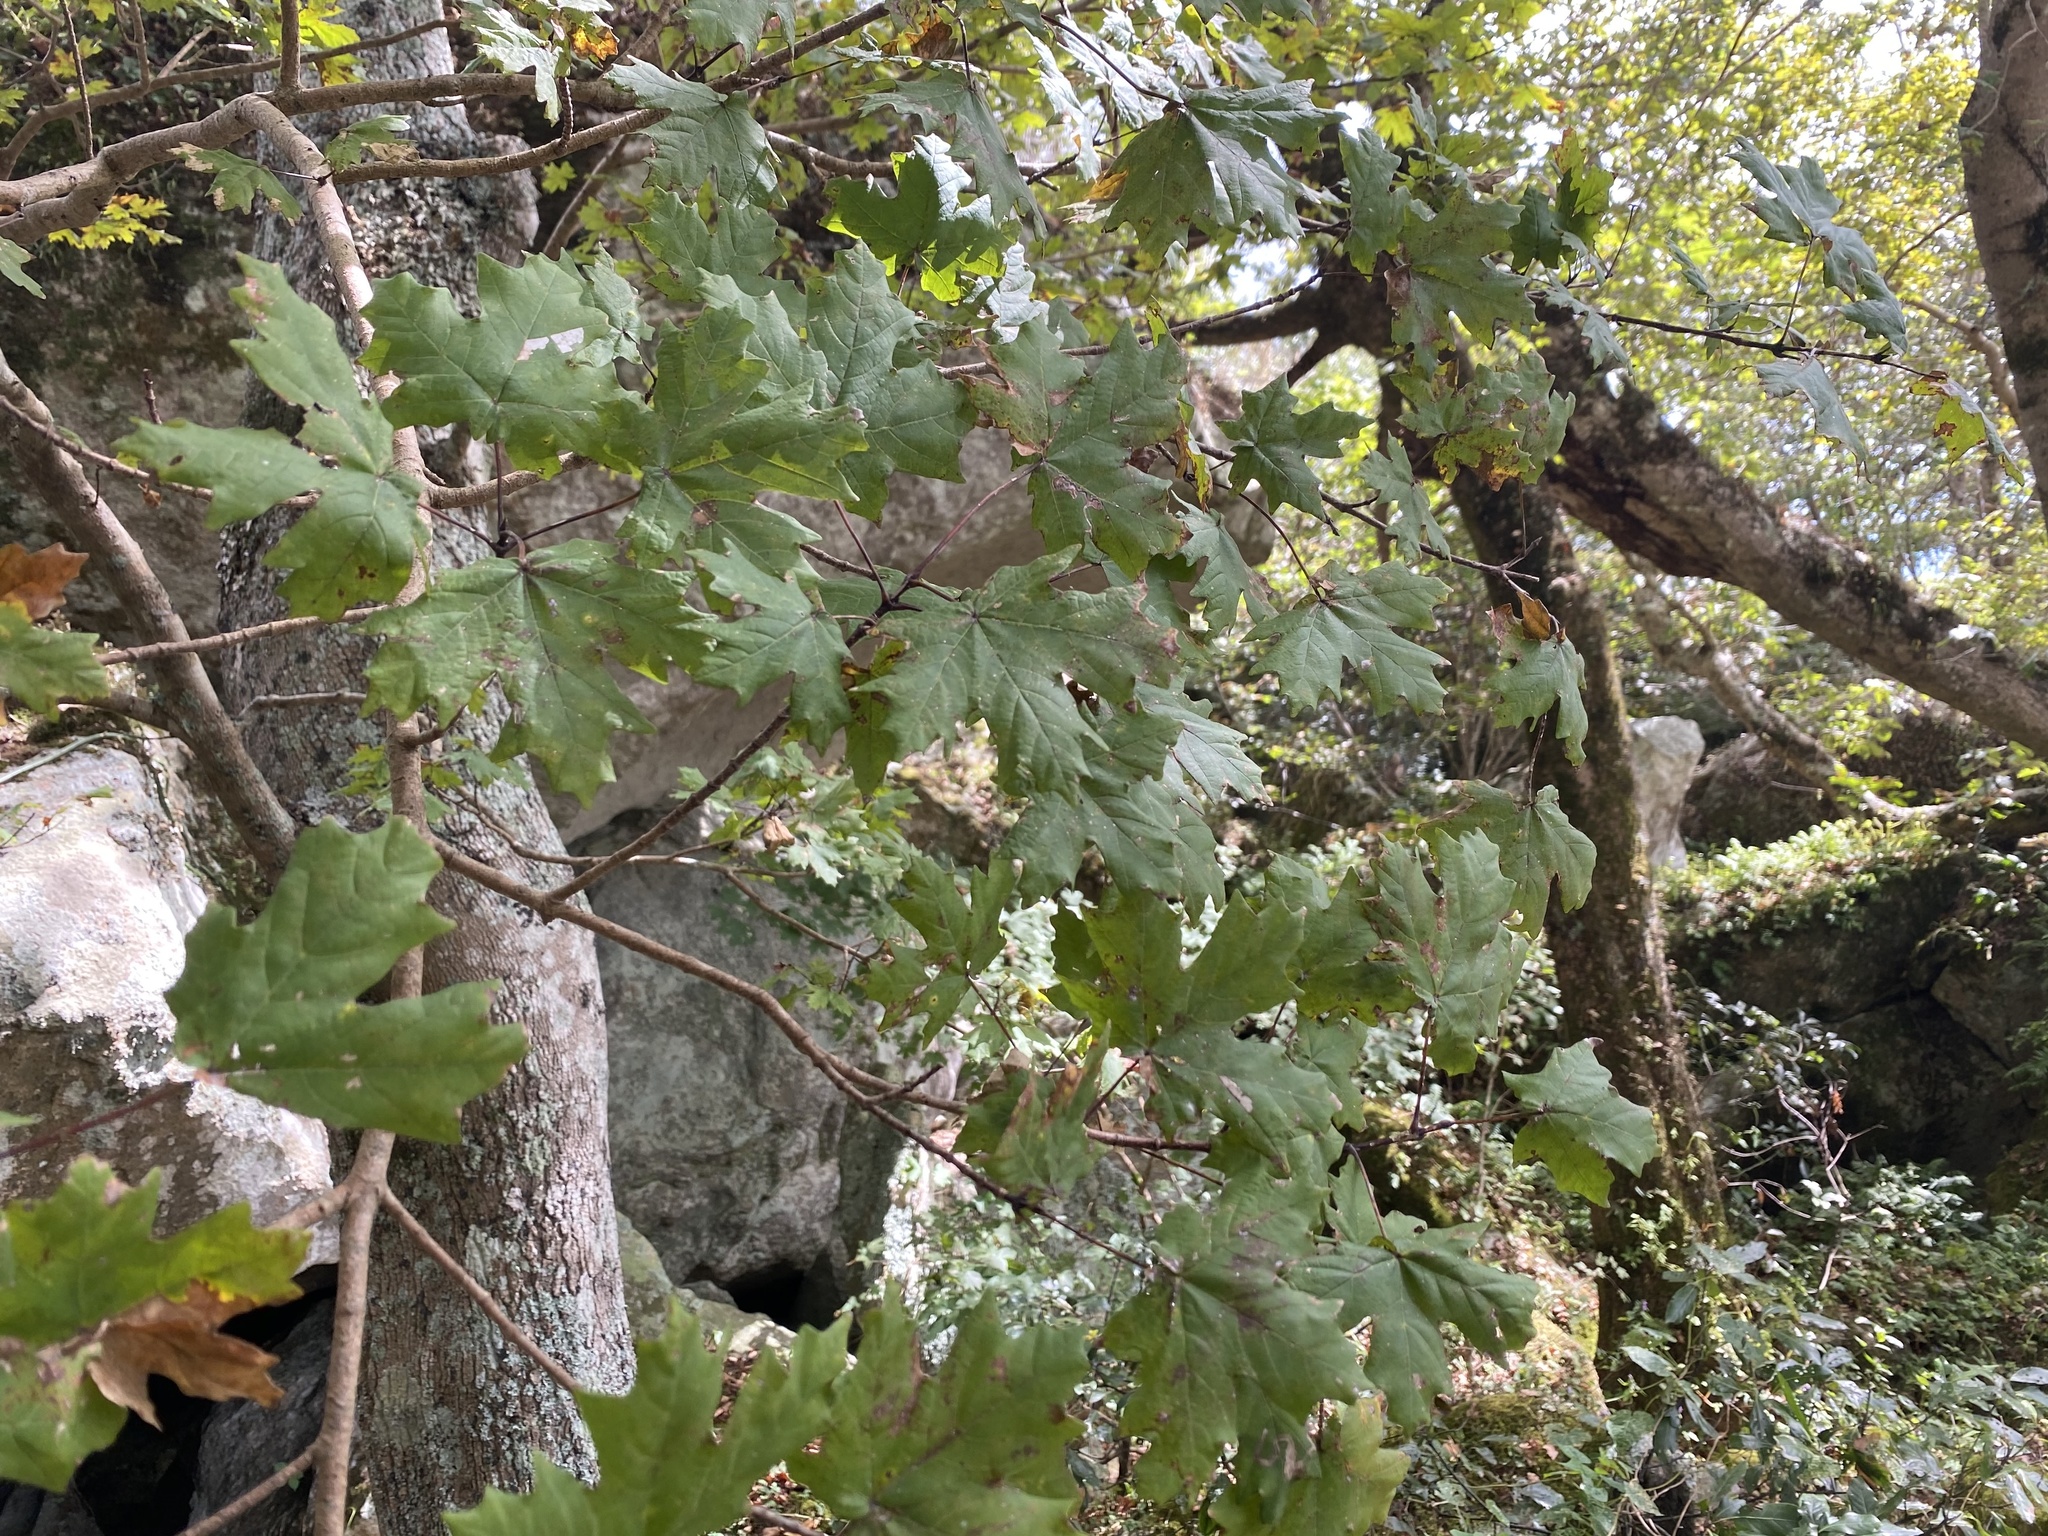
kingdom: Plantae
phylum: Tracheophyta
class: Magnoliopsida
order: Sapindales
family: Sapindaceae
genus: Acer
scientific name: Acer grandidentatum
